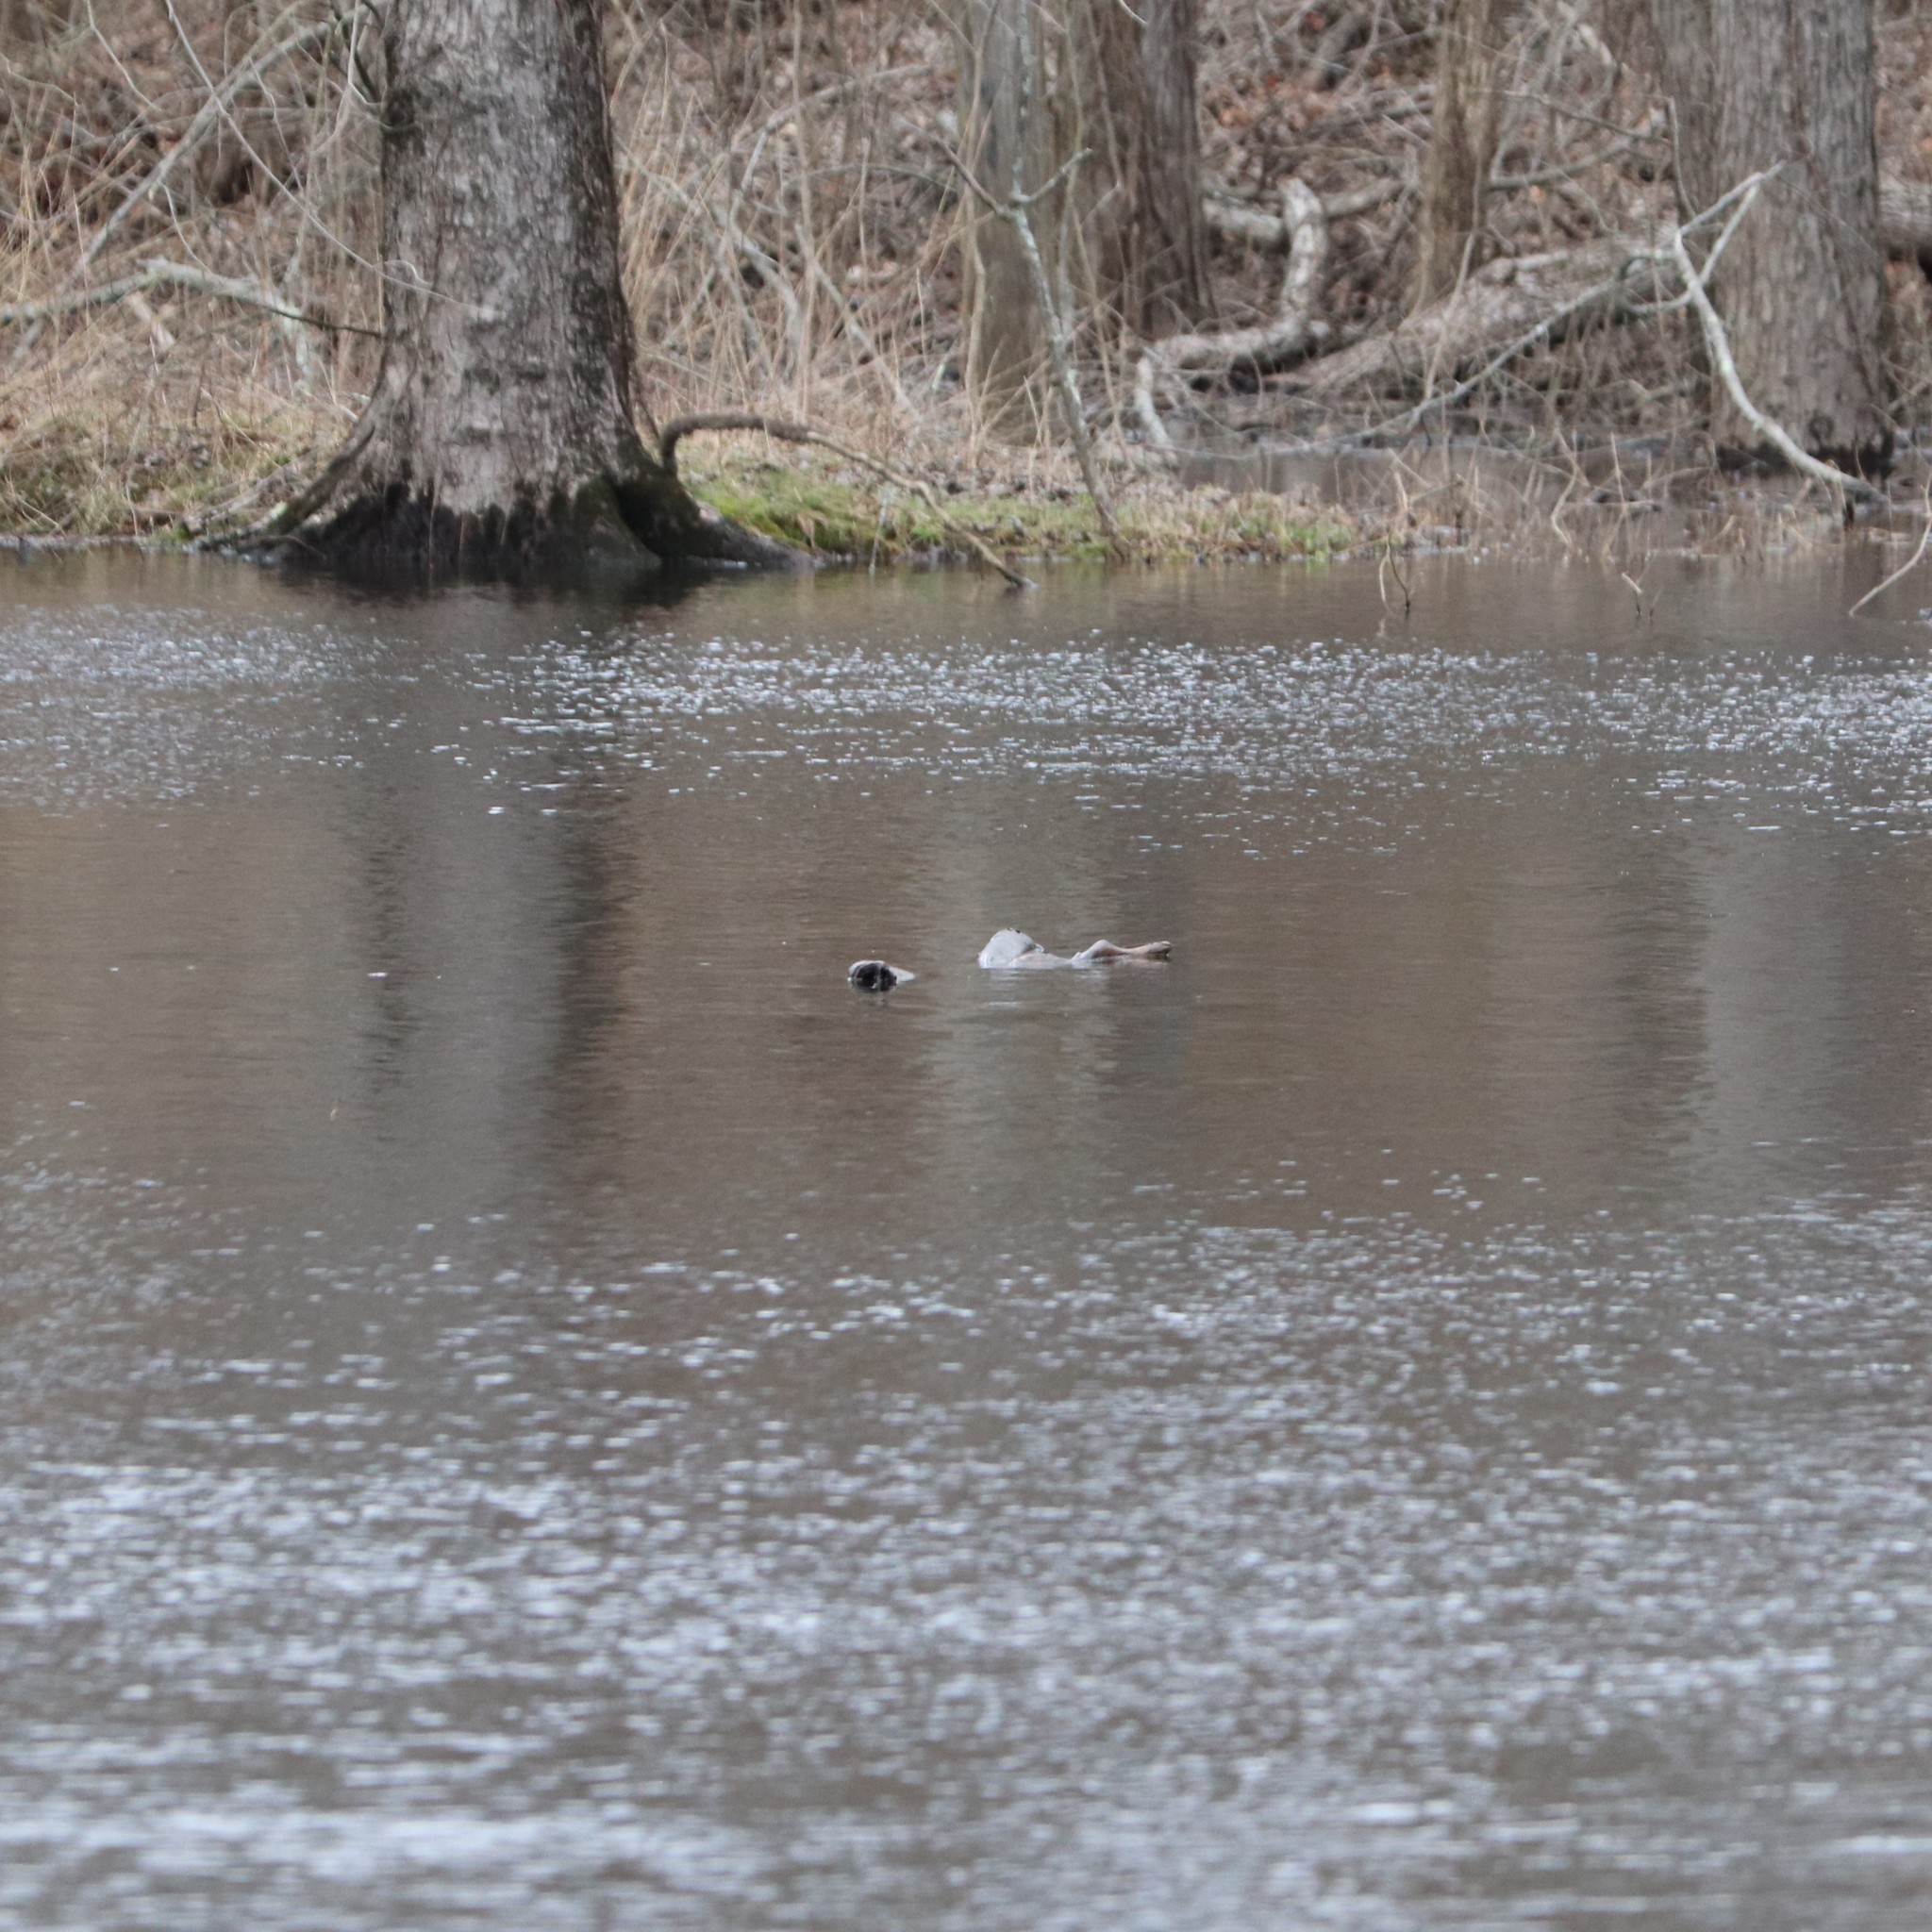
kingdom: Animalia
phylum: Chordata
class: Mammalia
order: Artiodactyla
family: Cervidae
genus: Odocoileus
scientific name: Odocoileus virginianus
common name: White-tailed deer
